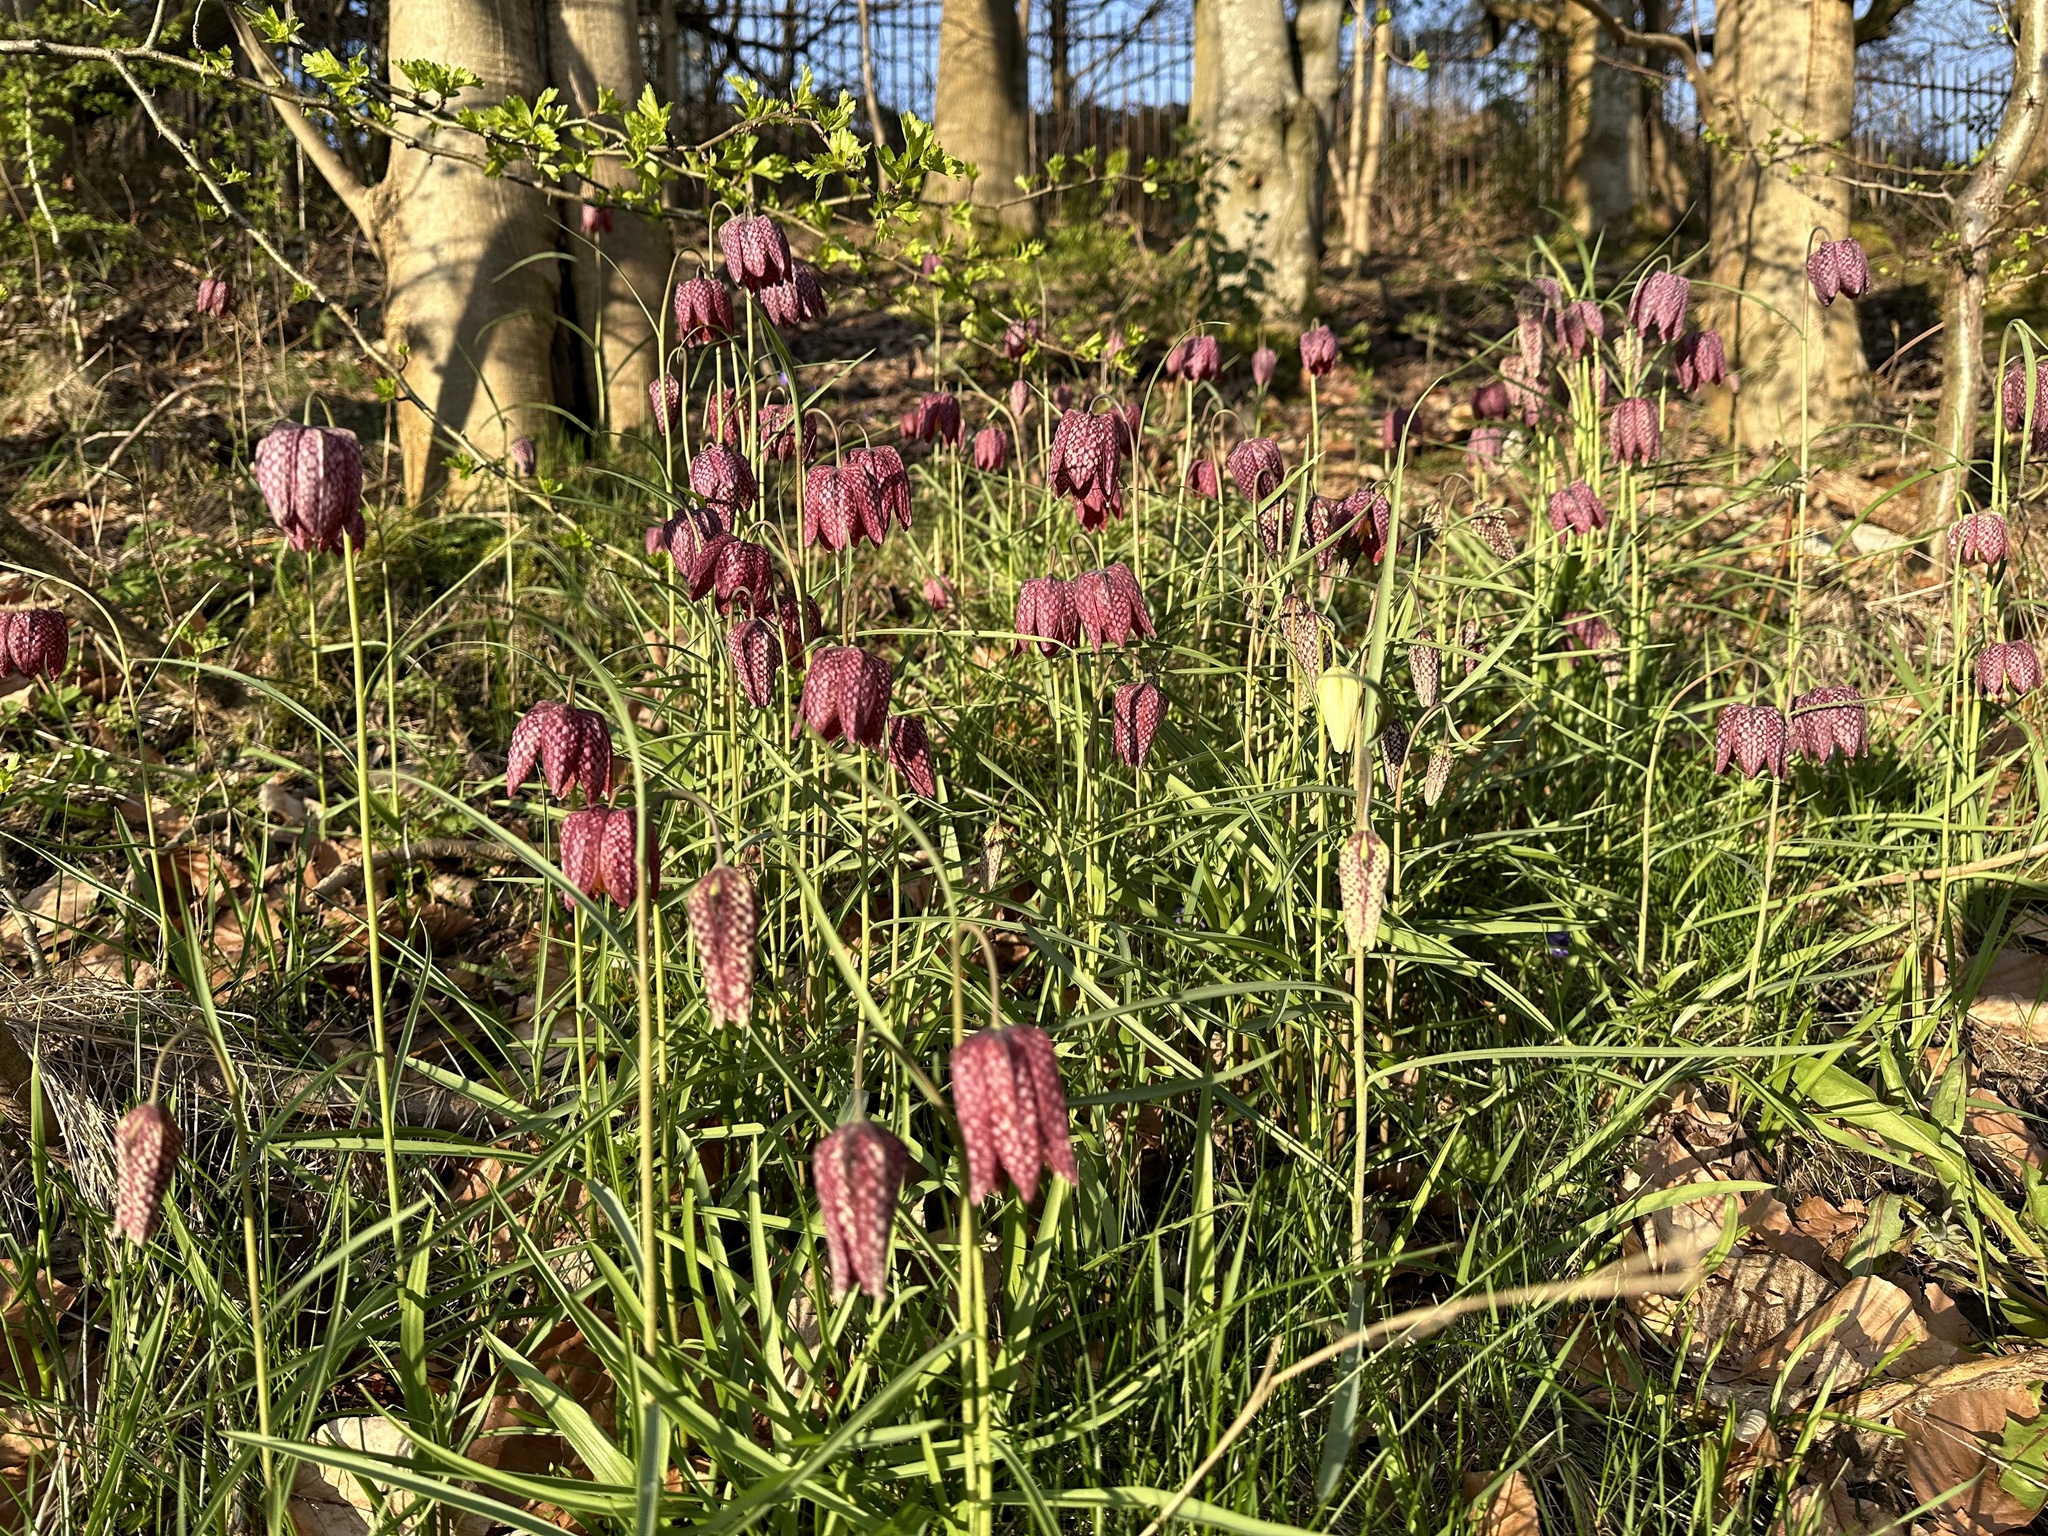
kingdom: Plantae
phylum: Tracheophyta
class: Liliopsida
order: Liliales
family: Liliaceae
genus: Fritillaria
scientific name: Fritillaria meleagris
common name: Fritillary
